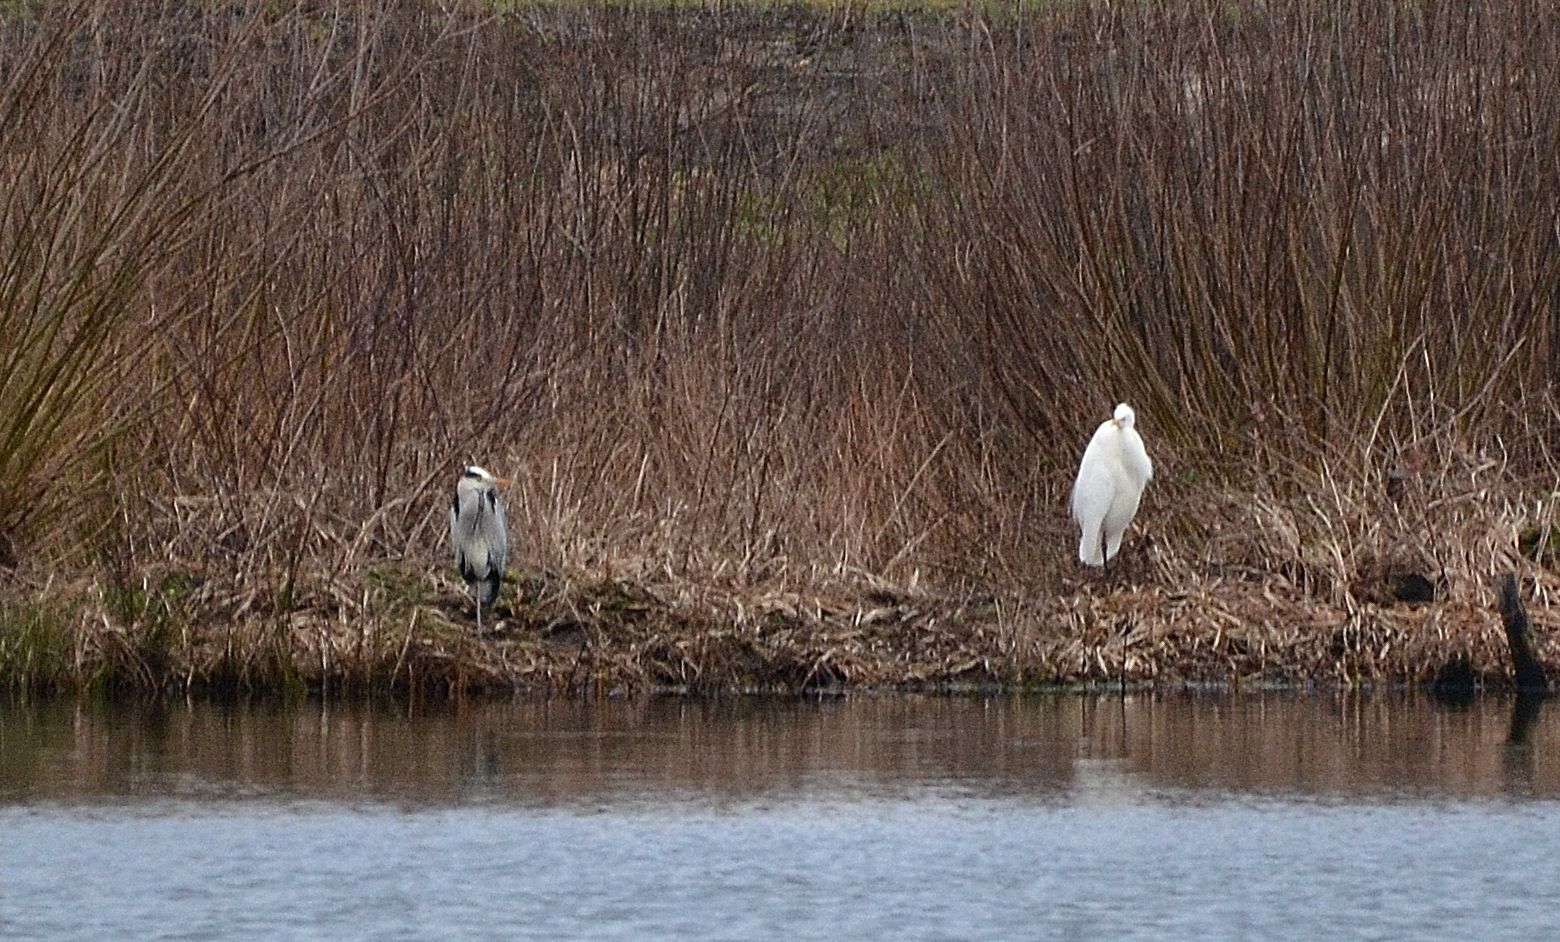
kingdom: Animalia
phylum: Chordata
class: Aves
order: Pelecaniformes
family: Ardeidae
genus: Ardea
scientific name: Ardea cinerea
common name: Grey heron
